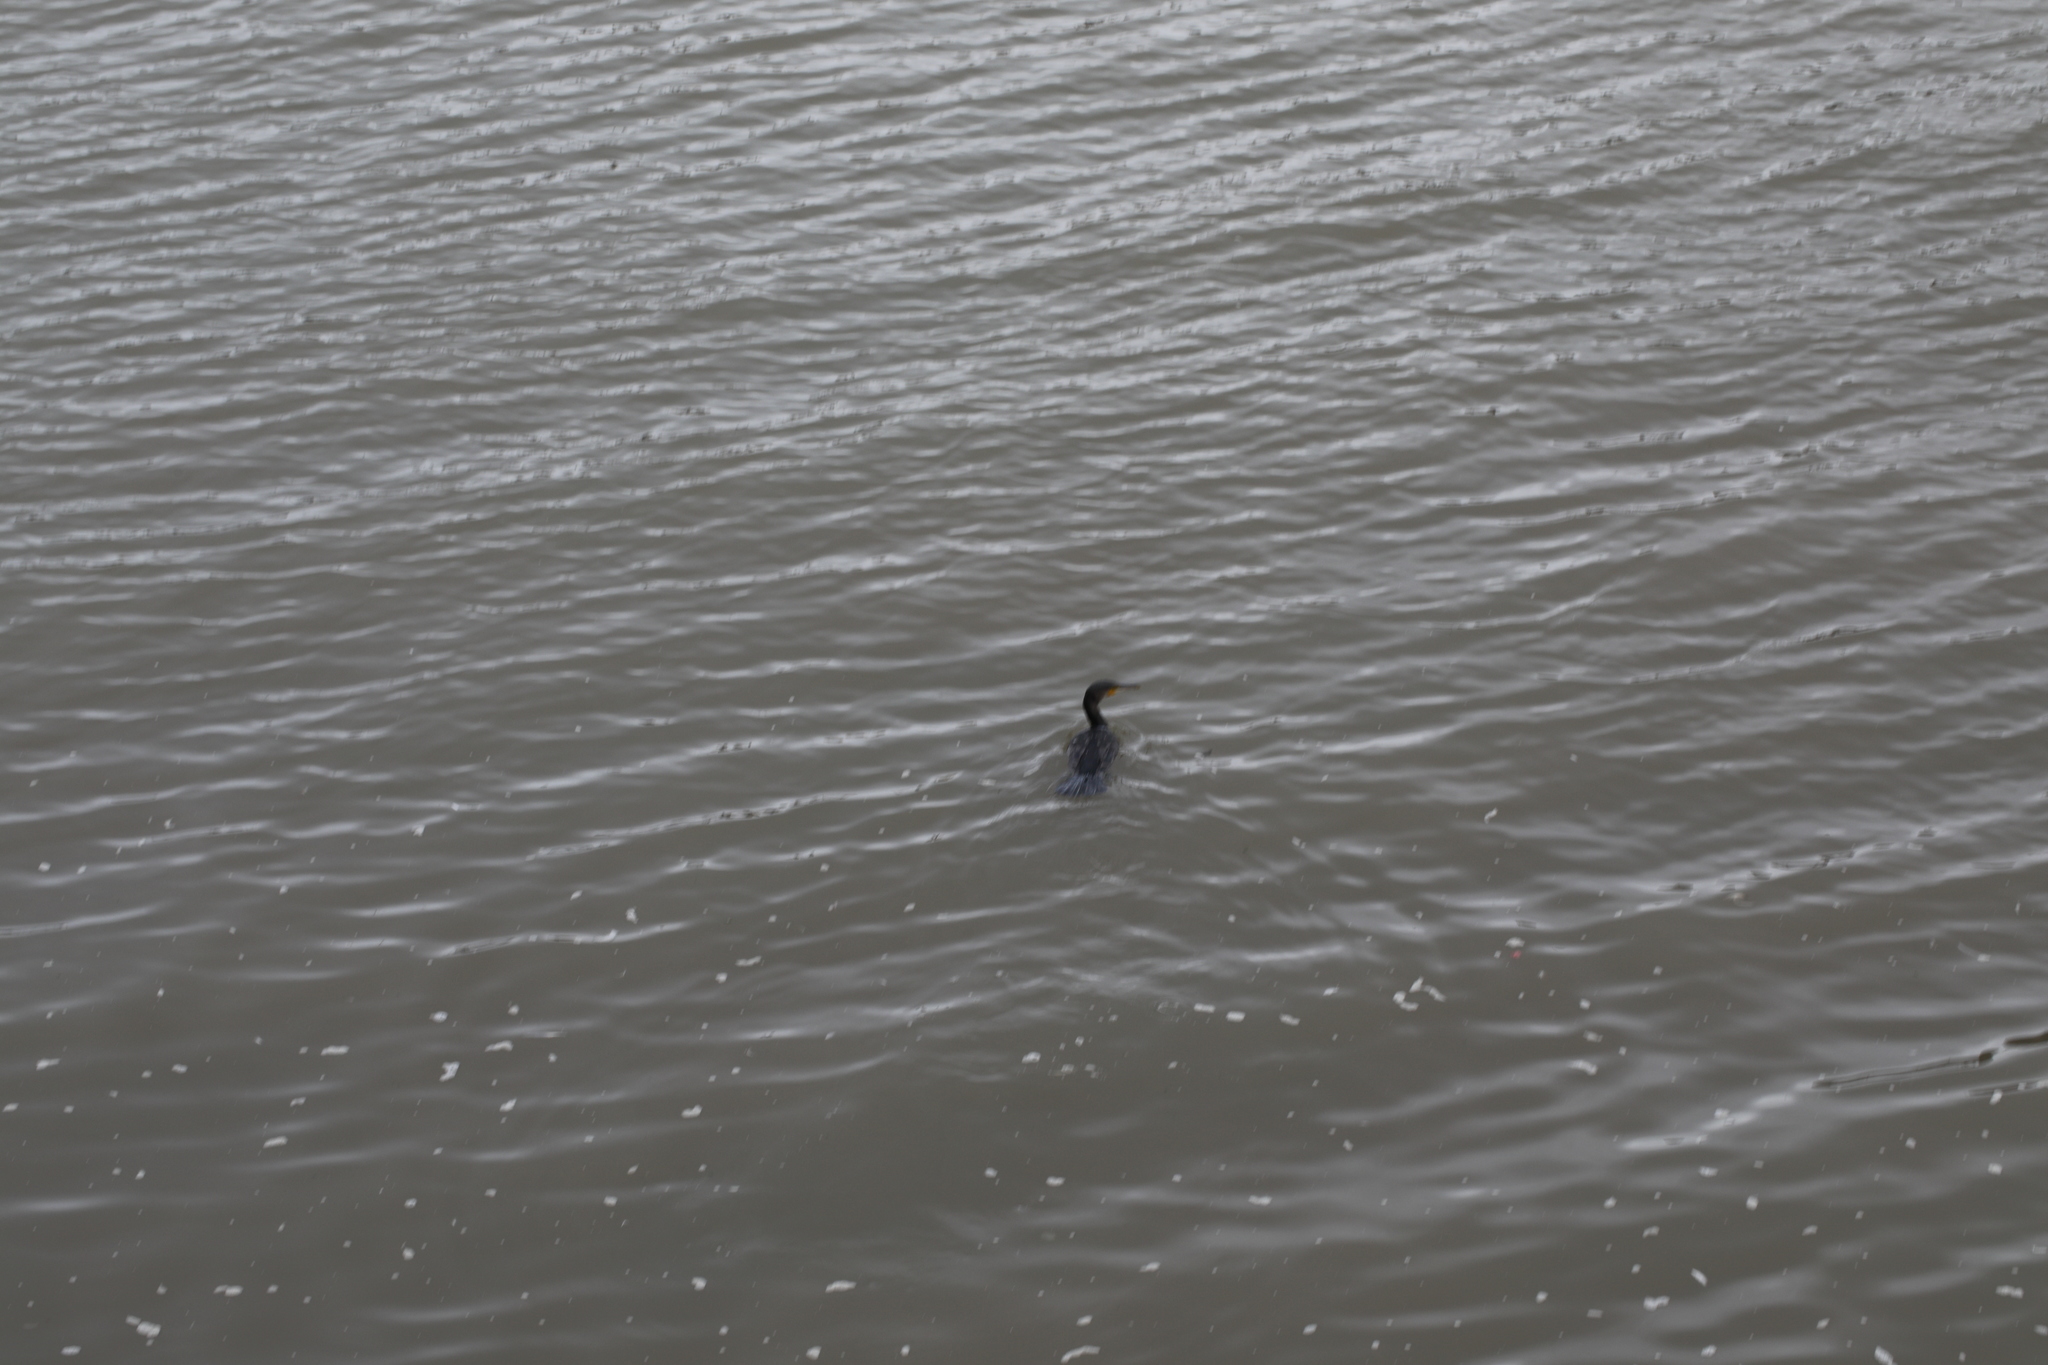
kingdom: Animalia
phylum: Chordata
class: Aves
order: Suliformes
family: Phalacrocoracidae
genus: Phalacrocorax
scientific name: Phalacrocorax carbo
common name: Great cormorant
